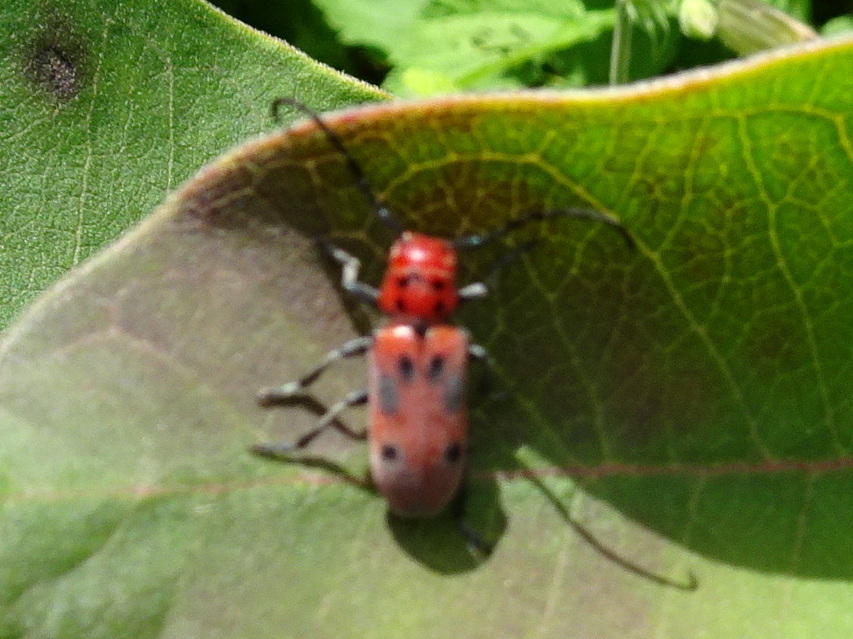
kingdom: Animalia
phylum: Arthropoda
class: Insecta
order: Coleoptera
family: Cerambycidae
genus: Tetraopes
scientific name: Tetraopes tetrophthalmus
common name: Red milkweed beetle
